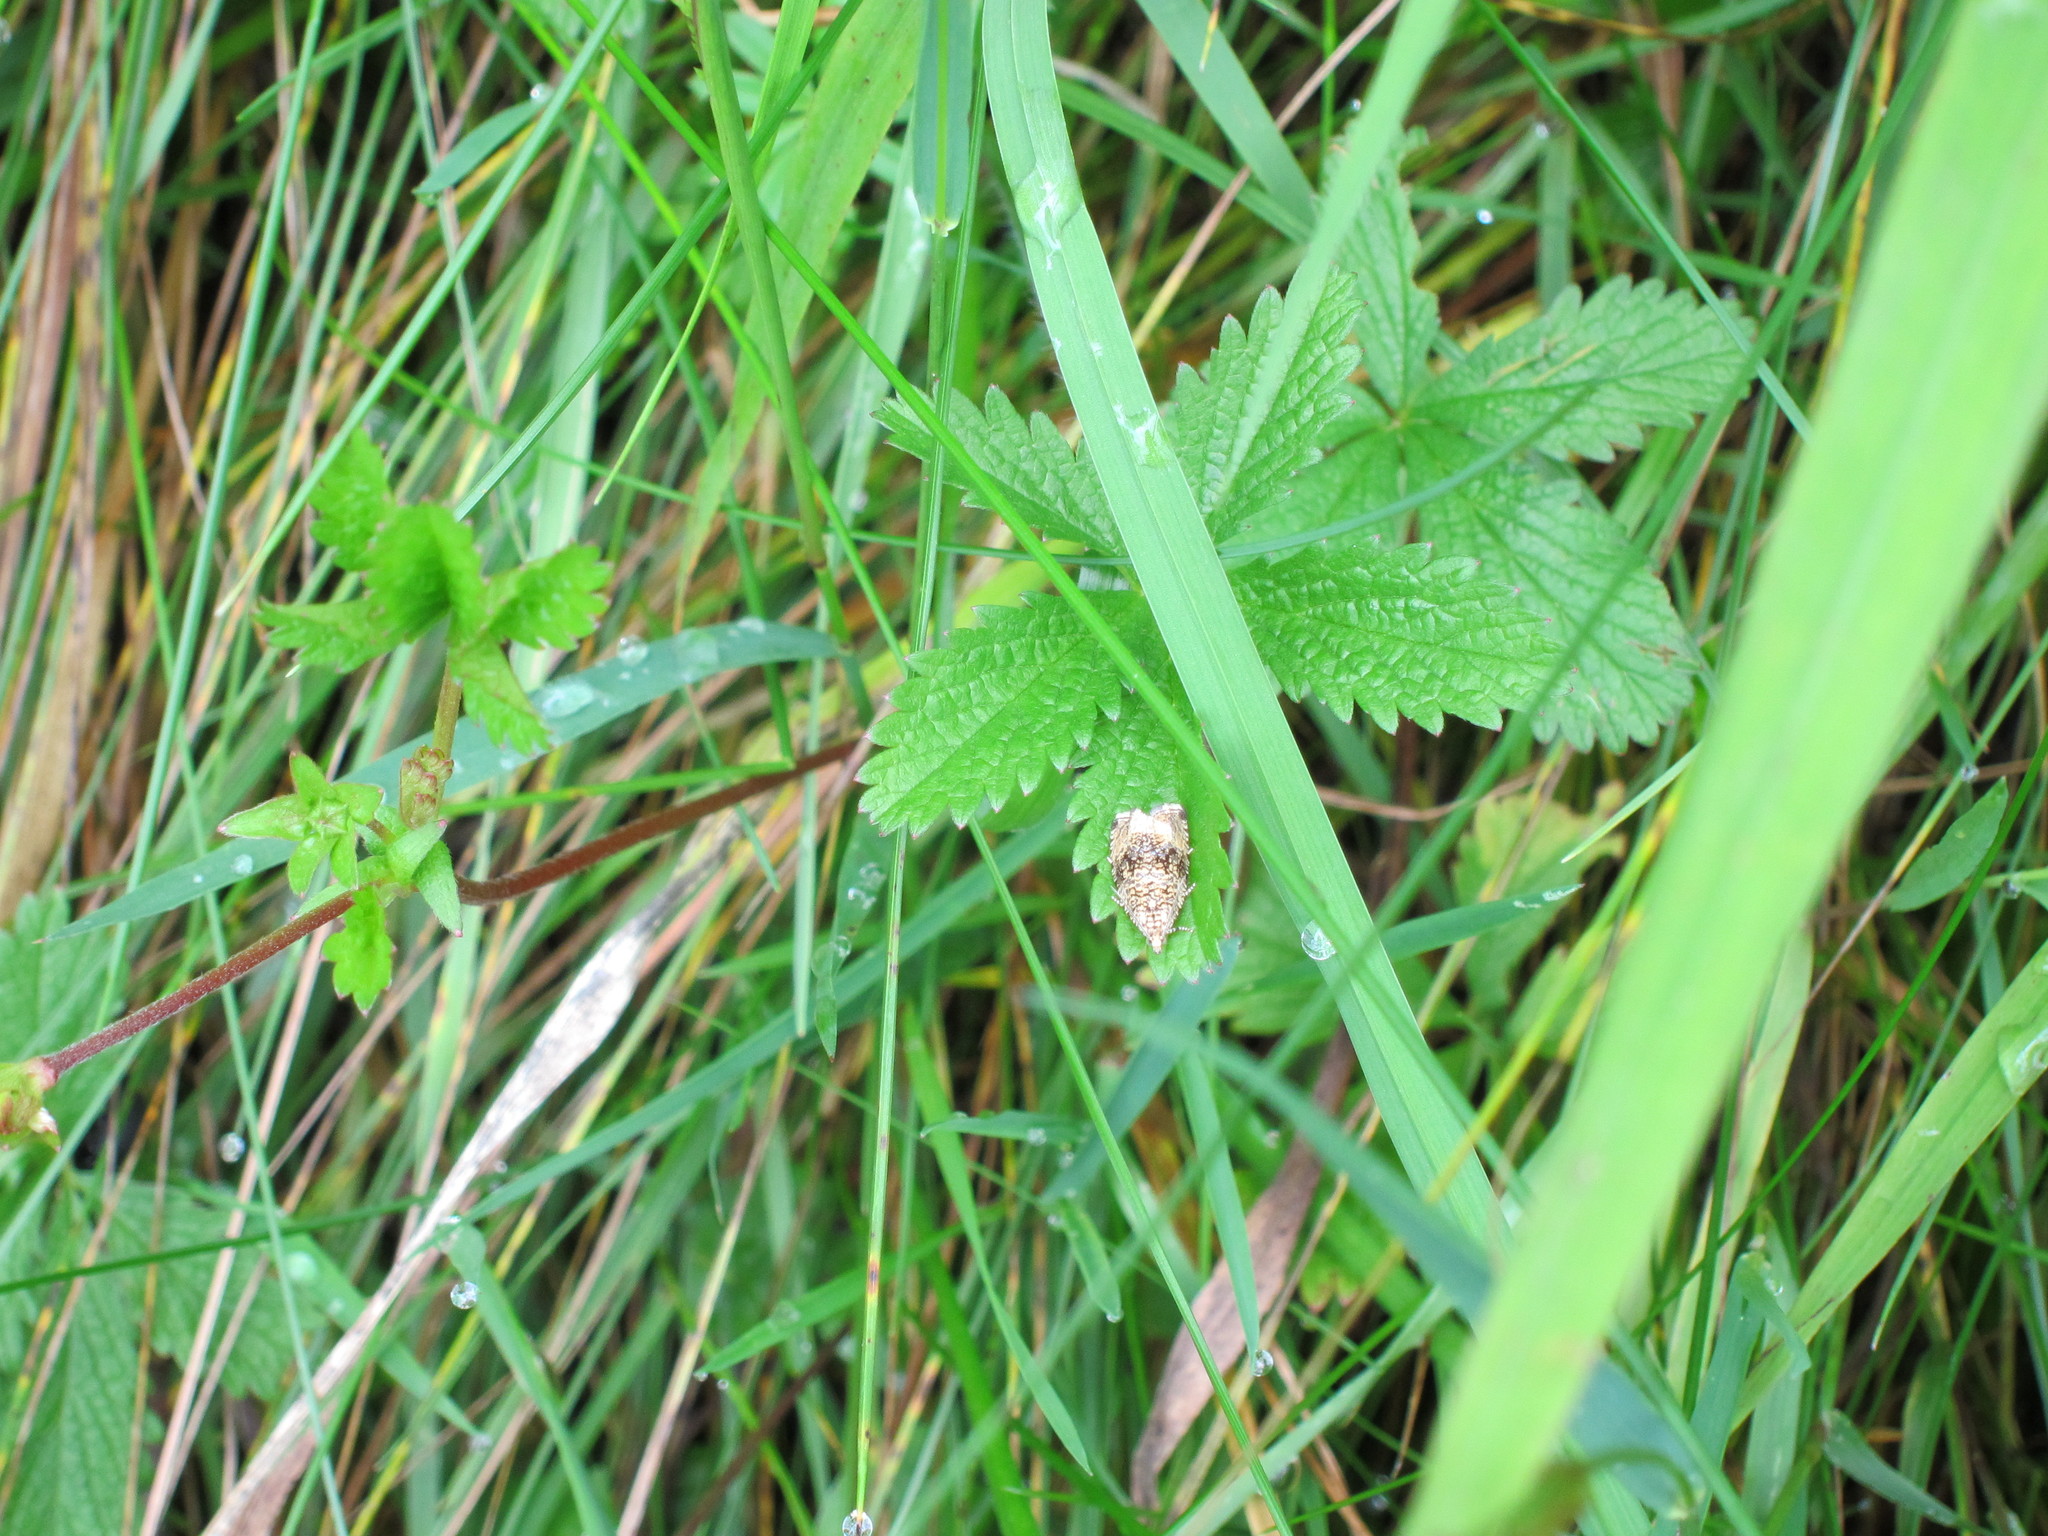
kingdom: Animalia
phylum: Arthropoda
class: Insecta
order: Lepidoptera
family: Tortricidae
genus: Syricoris
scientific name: Syricoris lacunana
